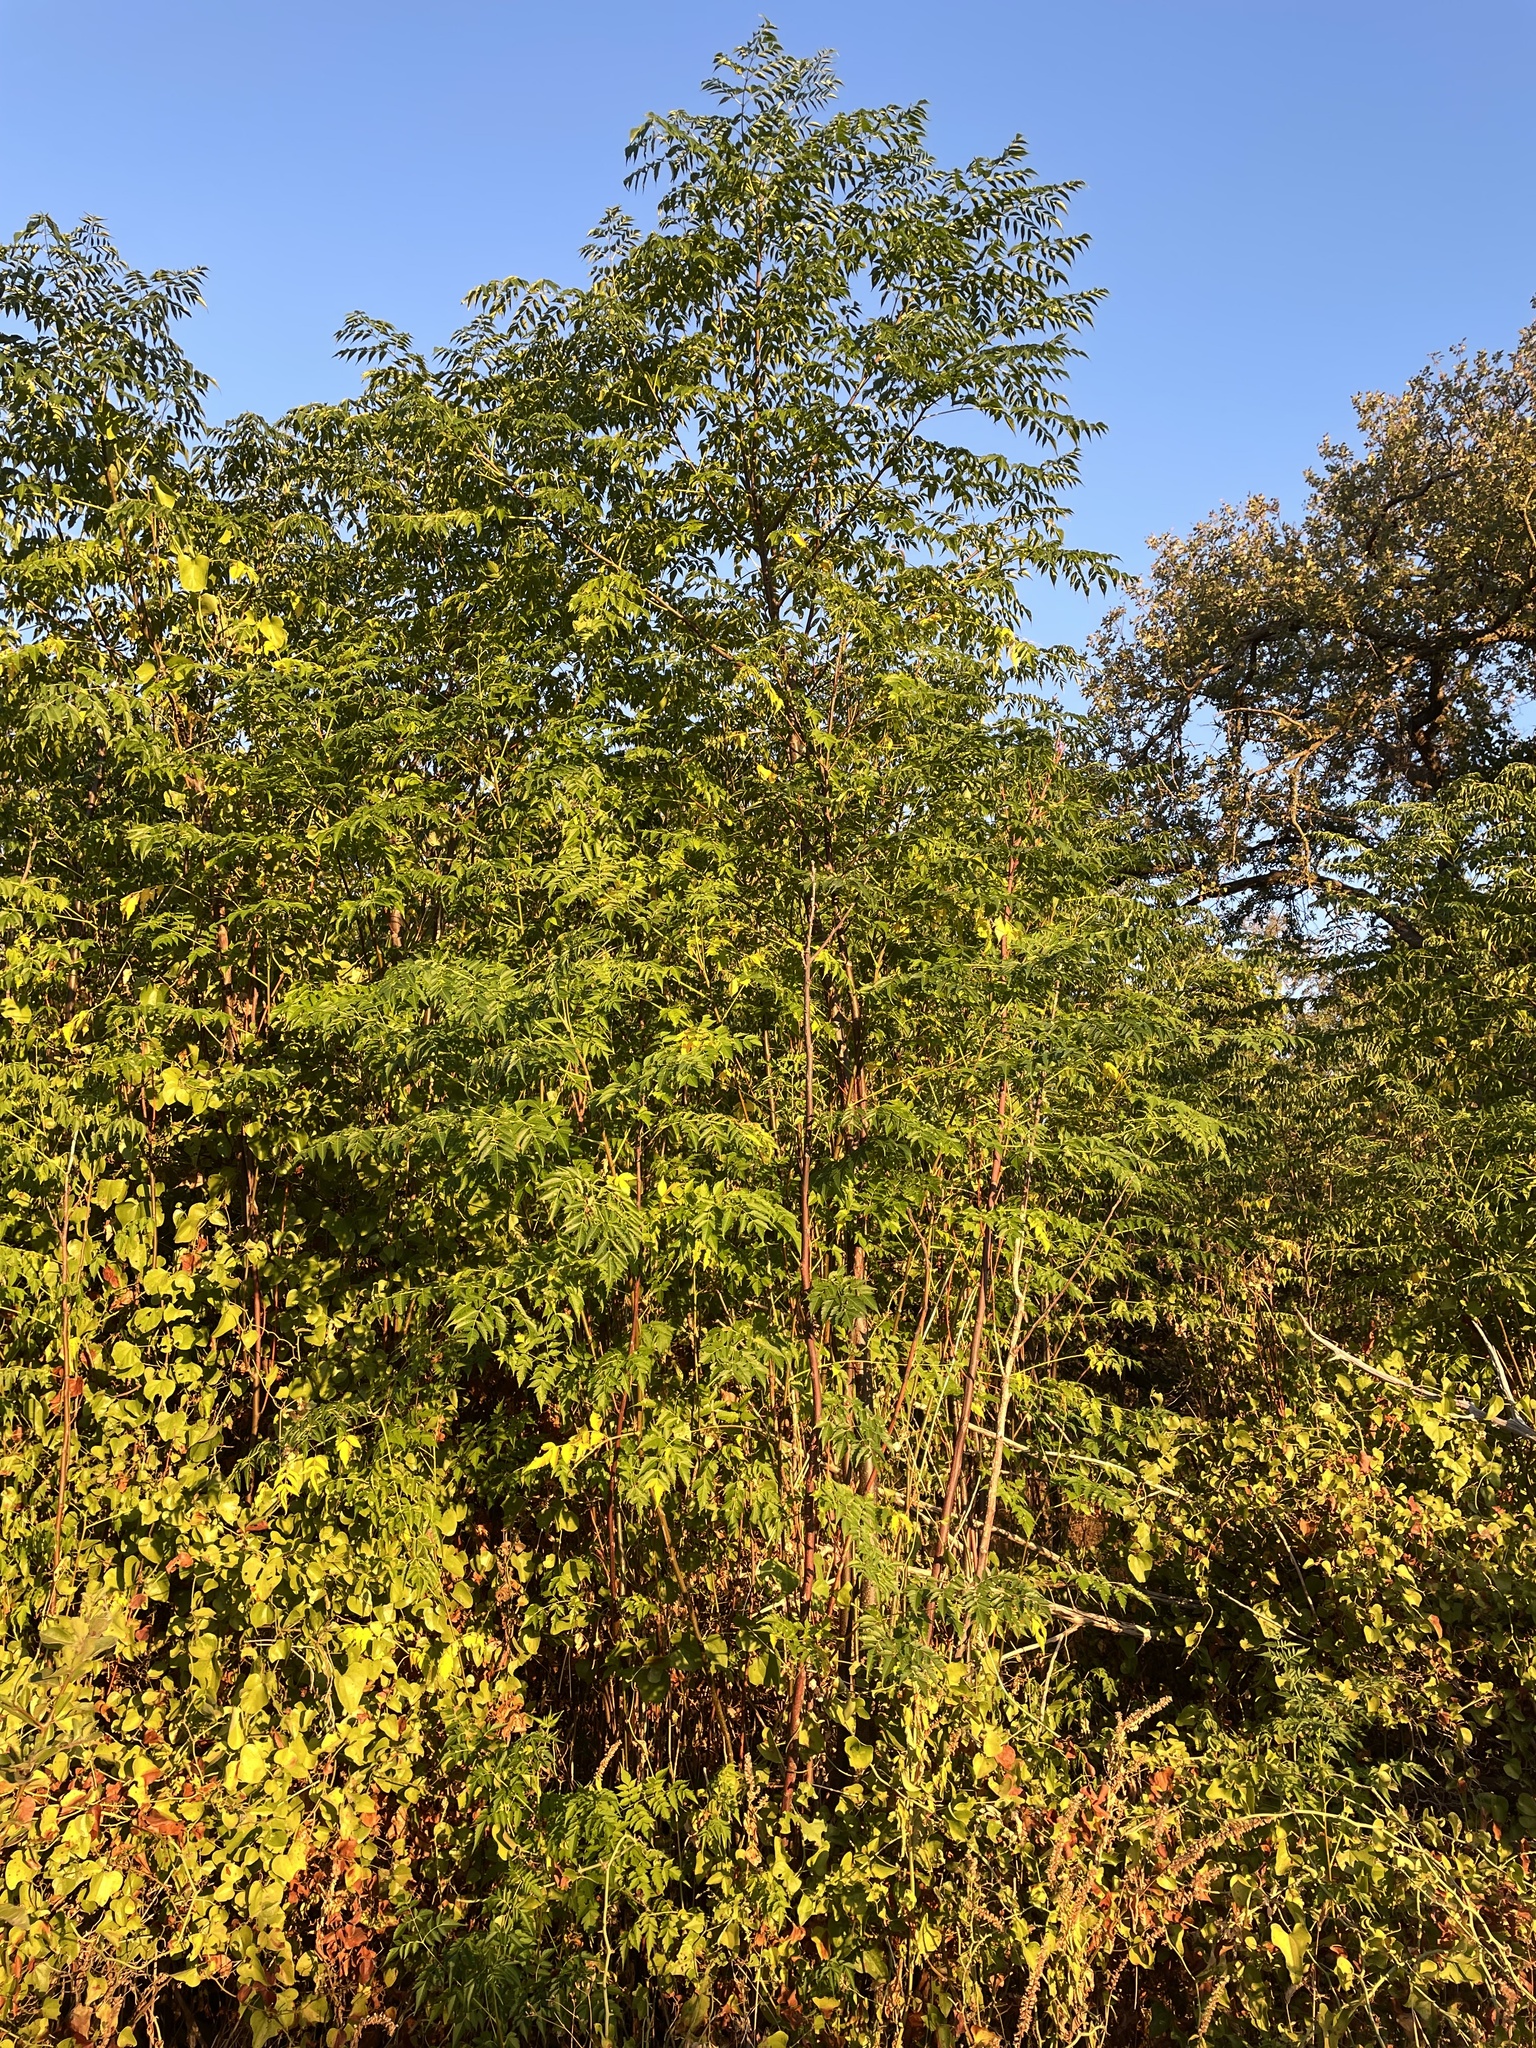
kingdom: Plantae
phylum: Tracheophyta
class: Magnoliopsida
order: Sapindales
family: Meliaceae
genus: Melia
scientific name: Melia azedarach
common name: Chinaberrytree
